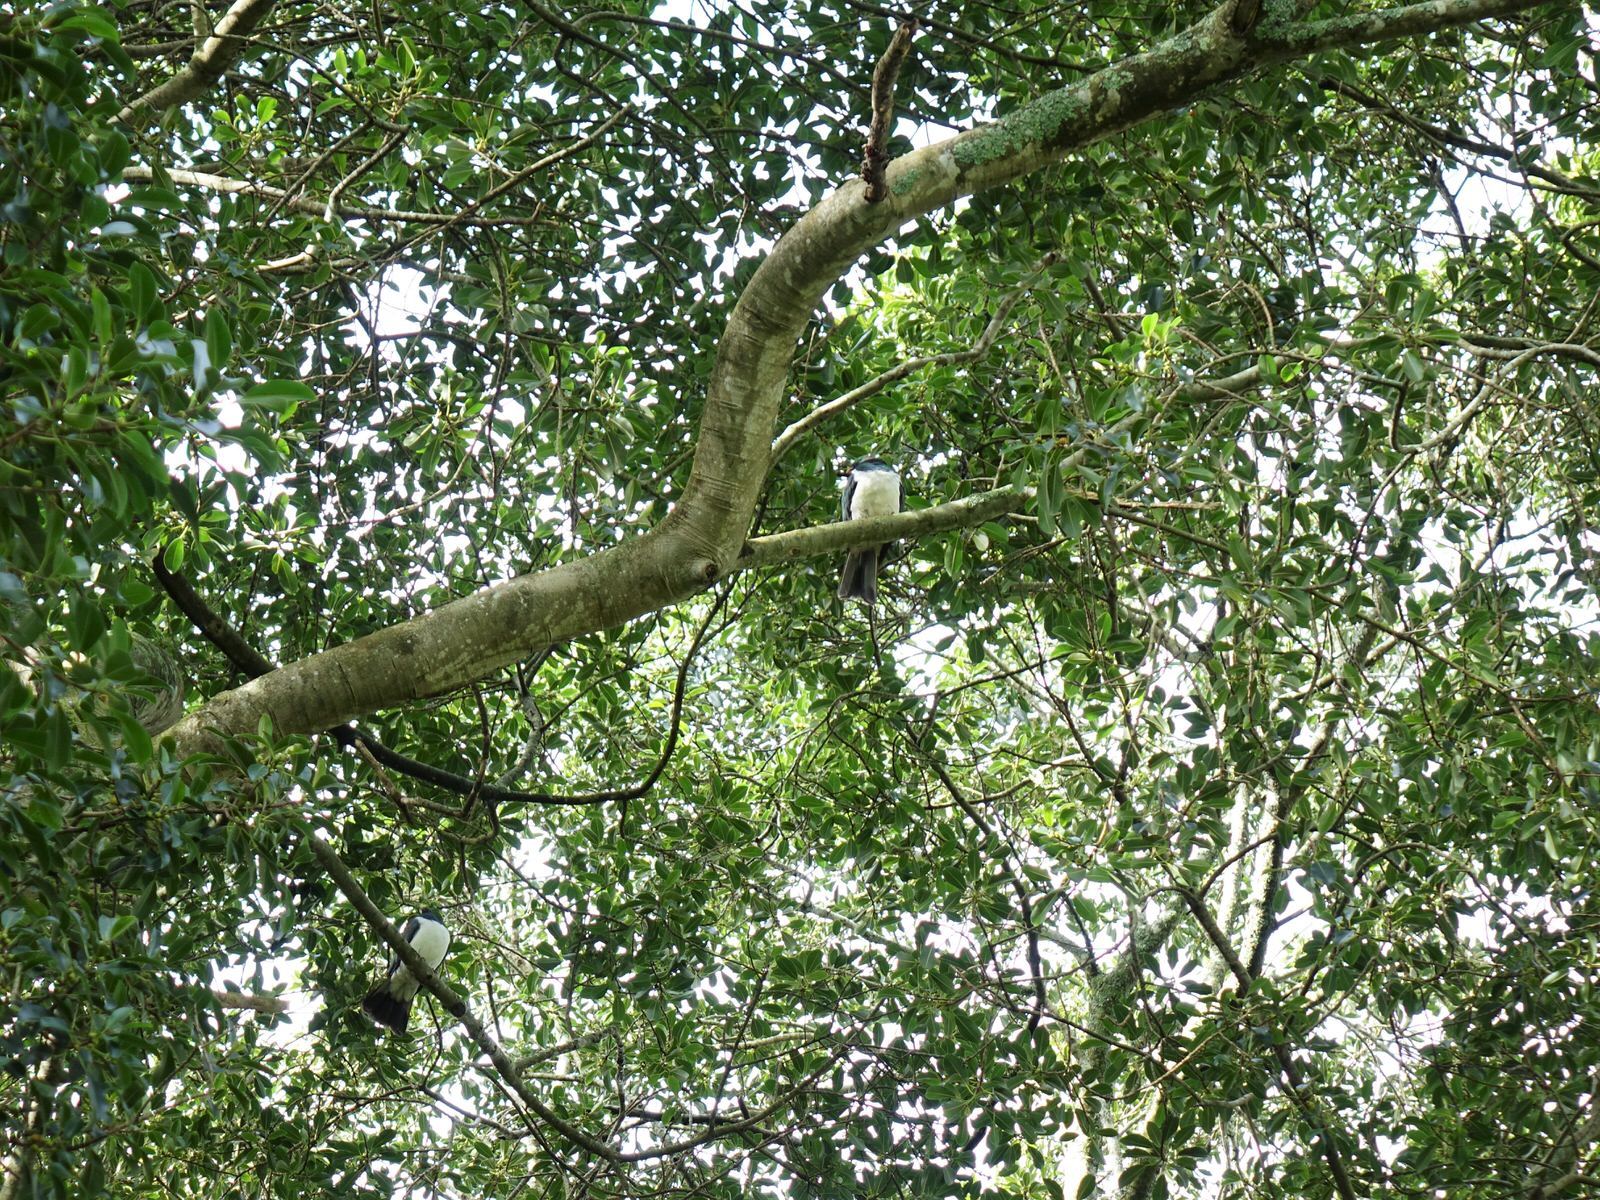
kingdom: Animalia
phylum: Chordata
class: Aves
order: Columbiformes
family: Columbidae
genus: Hemiphaga
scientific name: Hemiphaga novaeseelandiae
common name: New zealand pigeon
